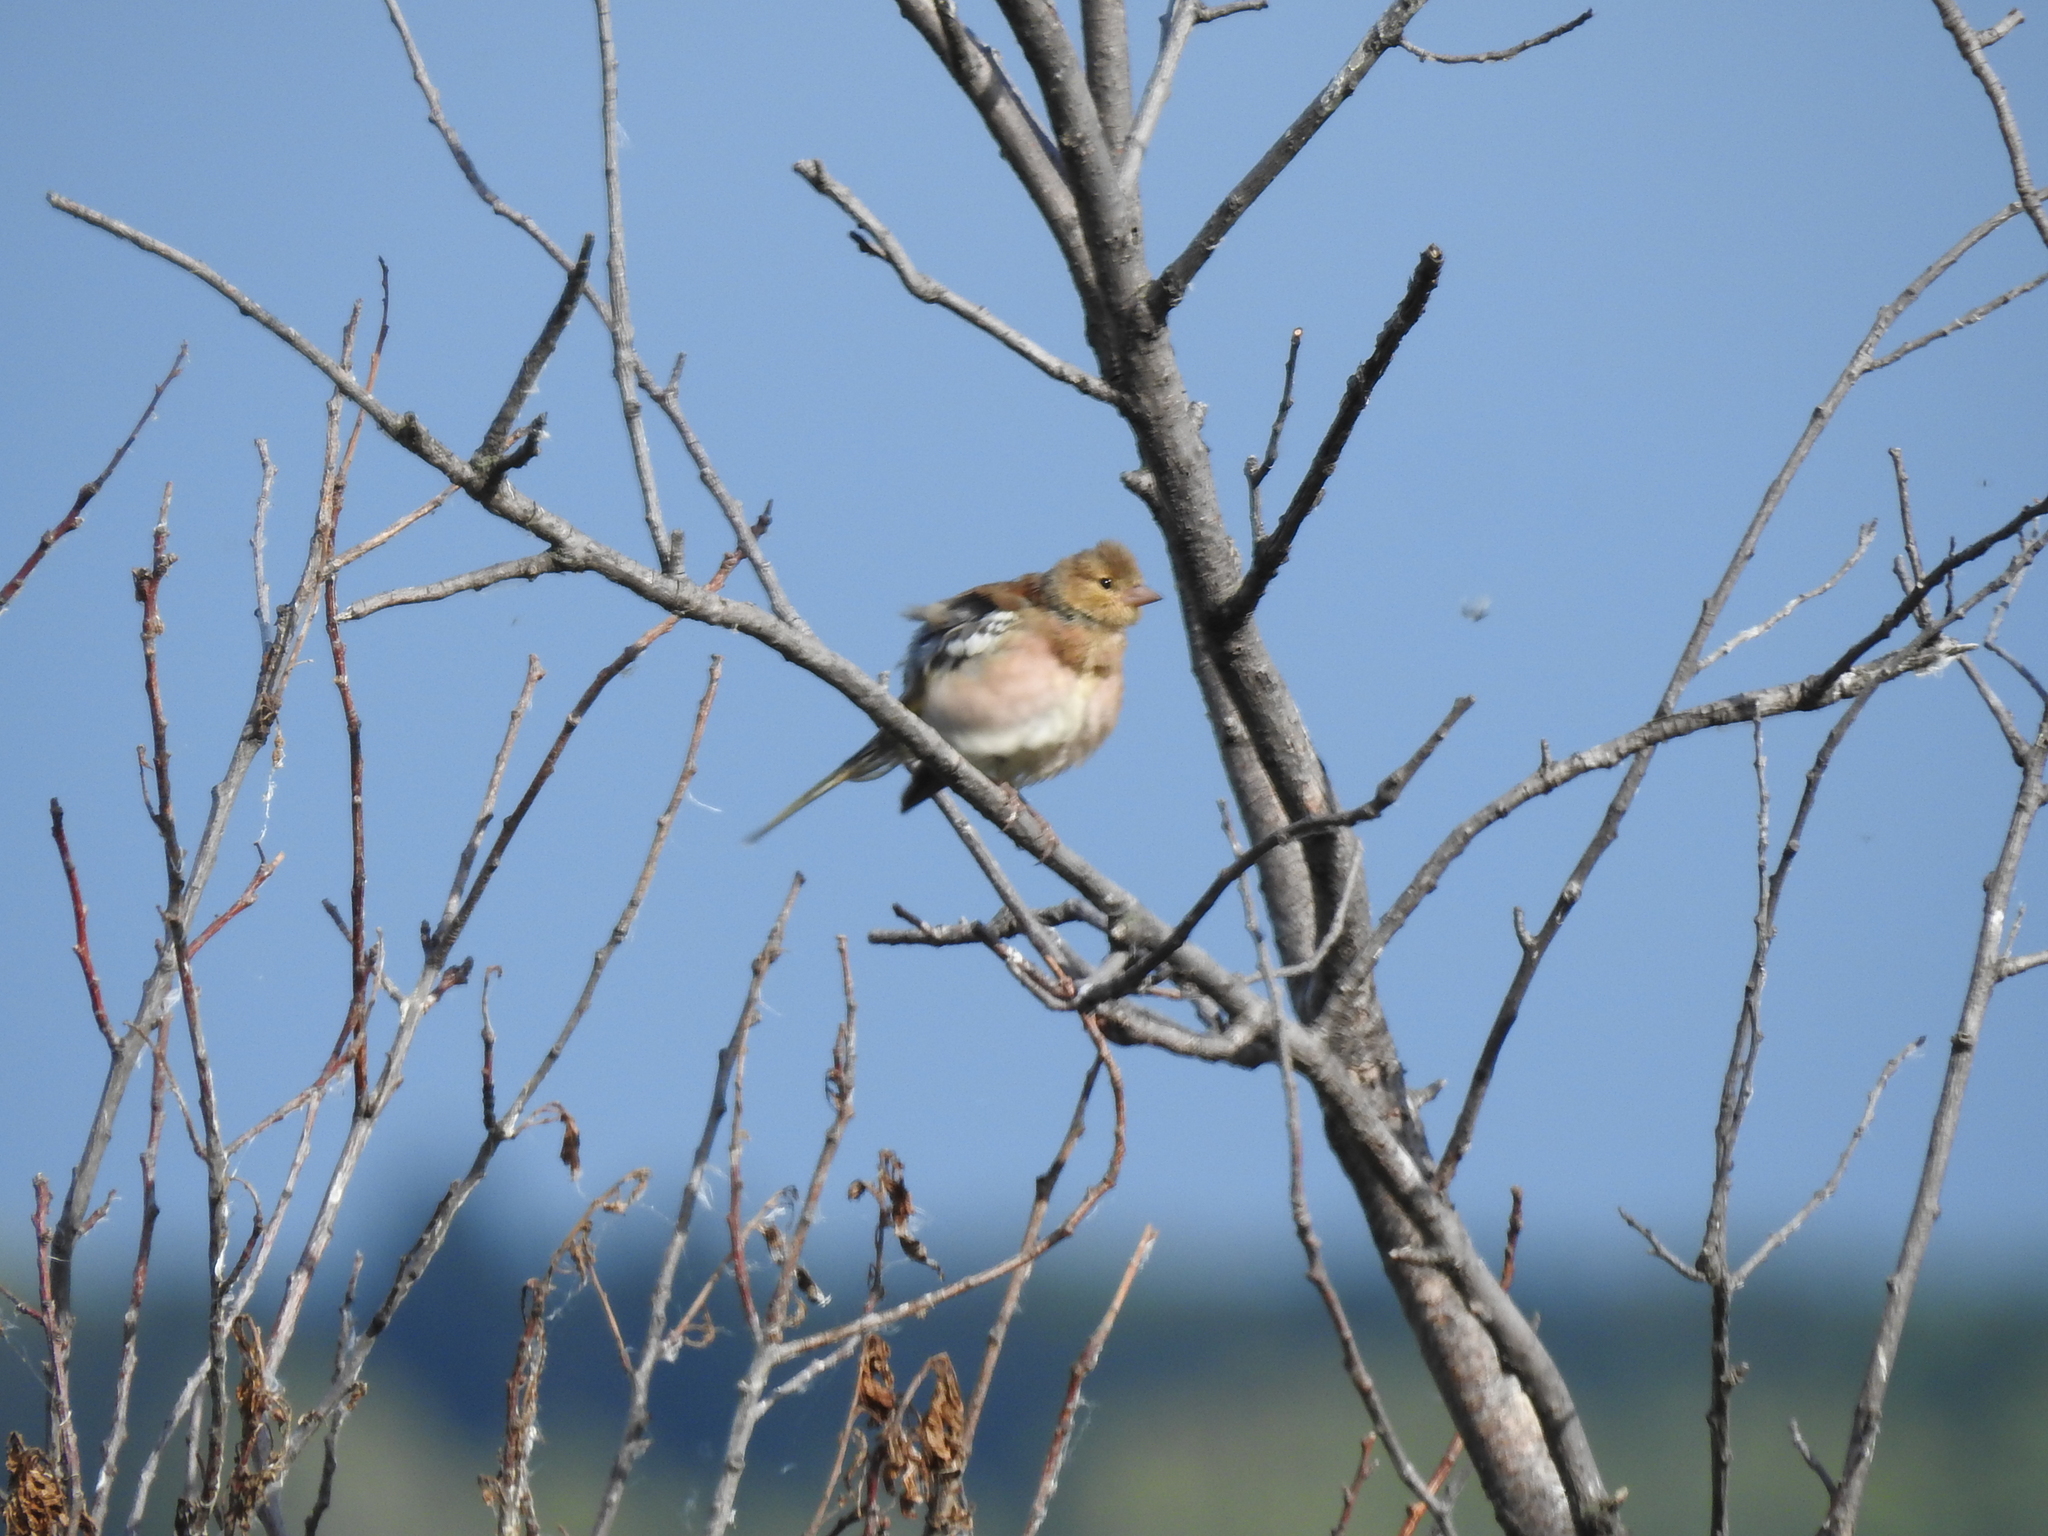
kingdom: Animalia
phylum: Chordata
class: Aves
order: Passeriformes
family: Fringillidae
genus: Fringilla
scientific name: Fringilla coelebs
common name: Common chaffinch
